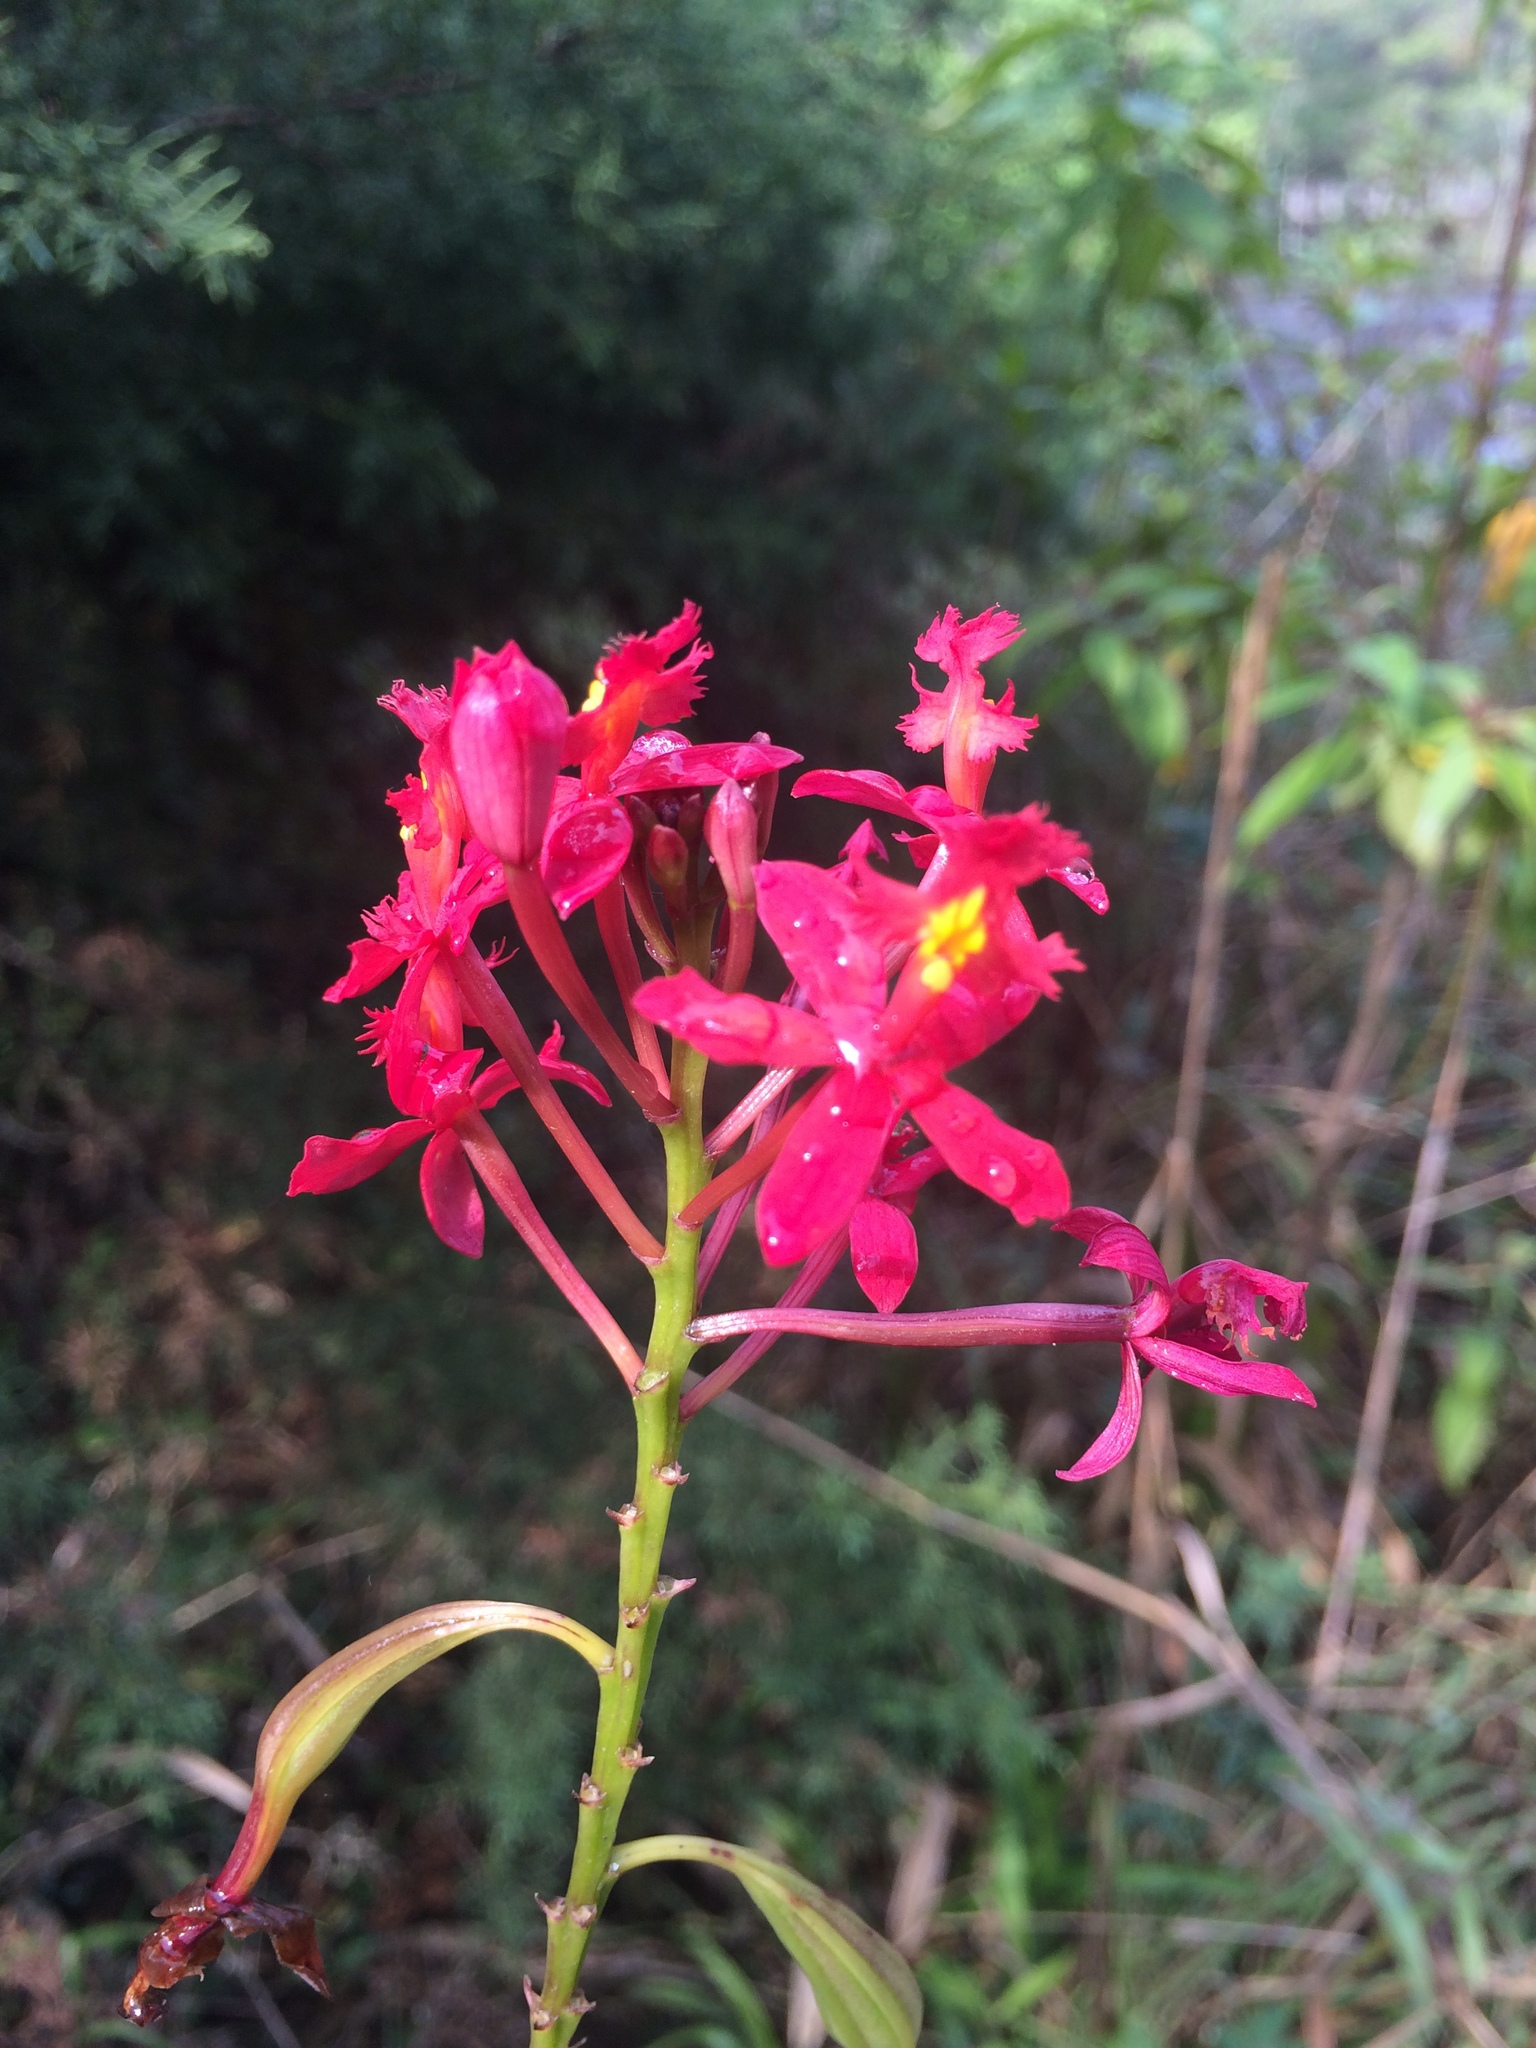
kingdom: Plantae
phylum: Tracheophyta
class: Liliopsida
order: Asparagales
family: Orchidaceae
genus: Epidendrum
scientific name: Epidendrum radicans
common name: Fire star orchid
